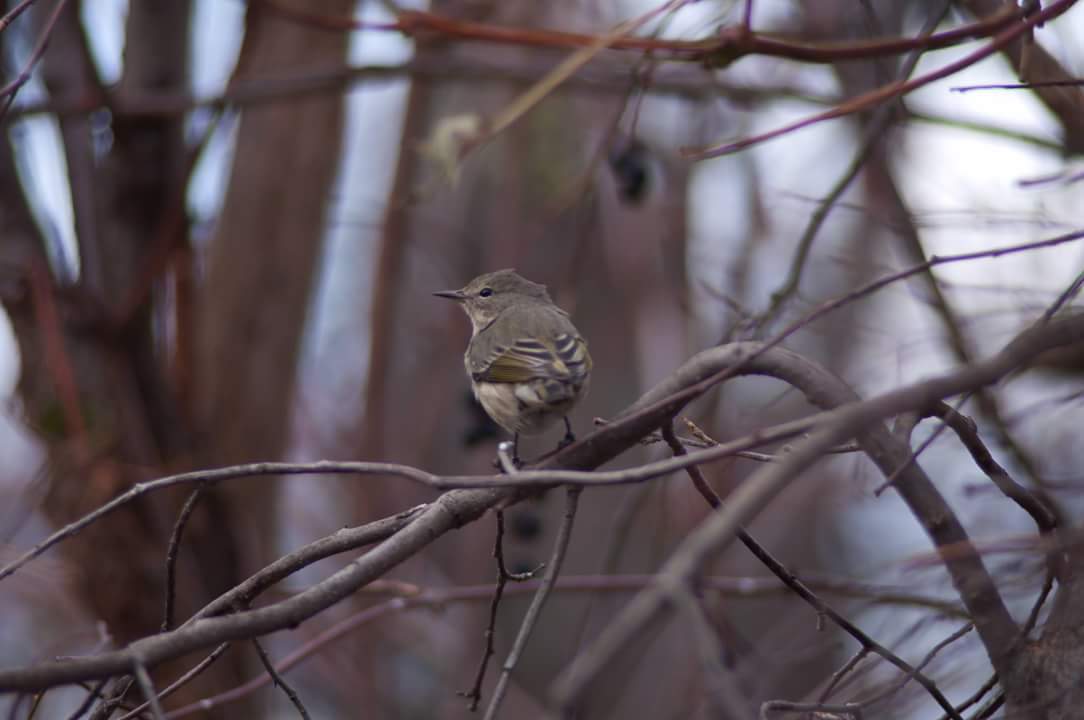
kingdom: Animalia
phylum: Chordata
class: Aves
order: Passeriformes
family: Parulidae
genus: Setophaga
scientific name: Setophaga tigrina
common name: Cape may warbler
